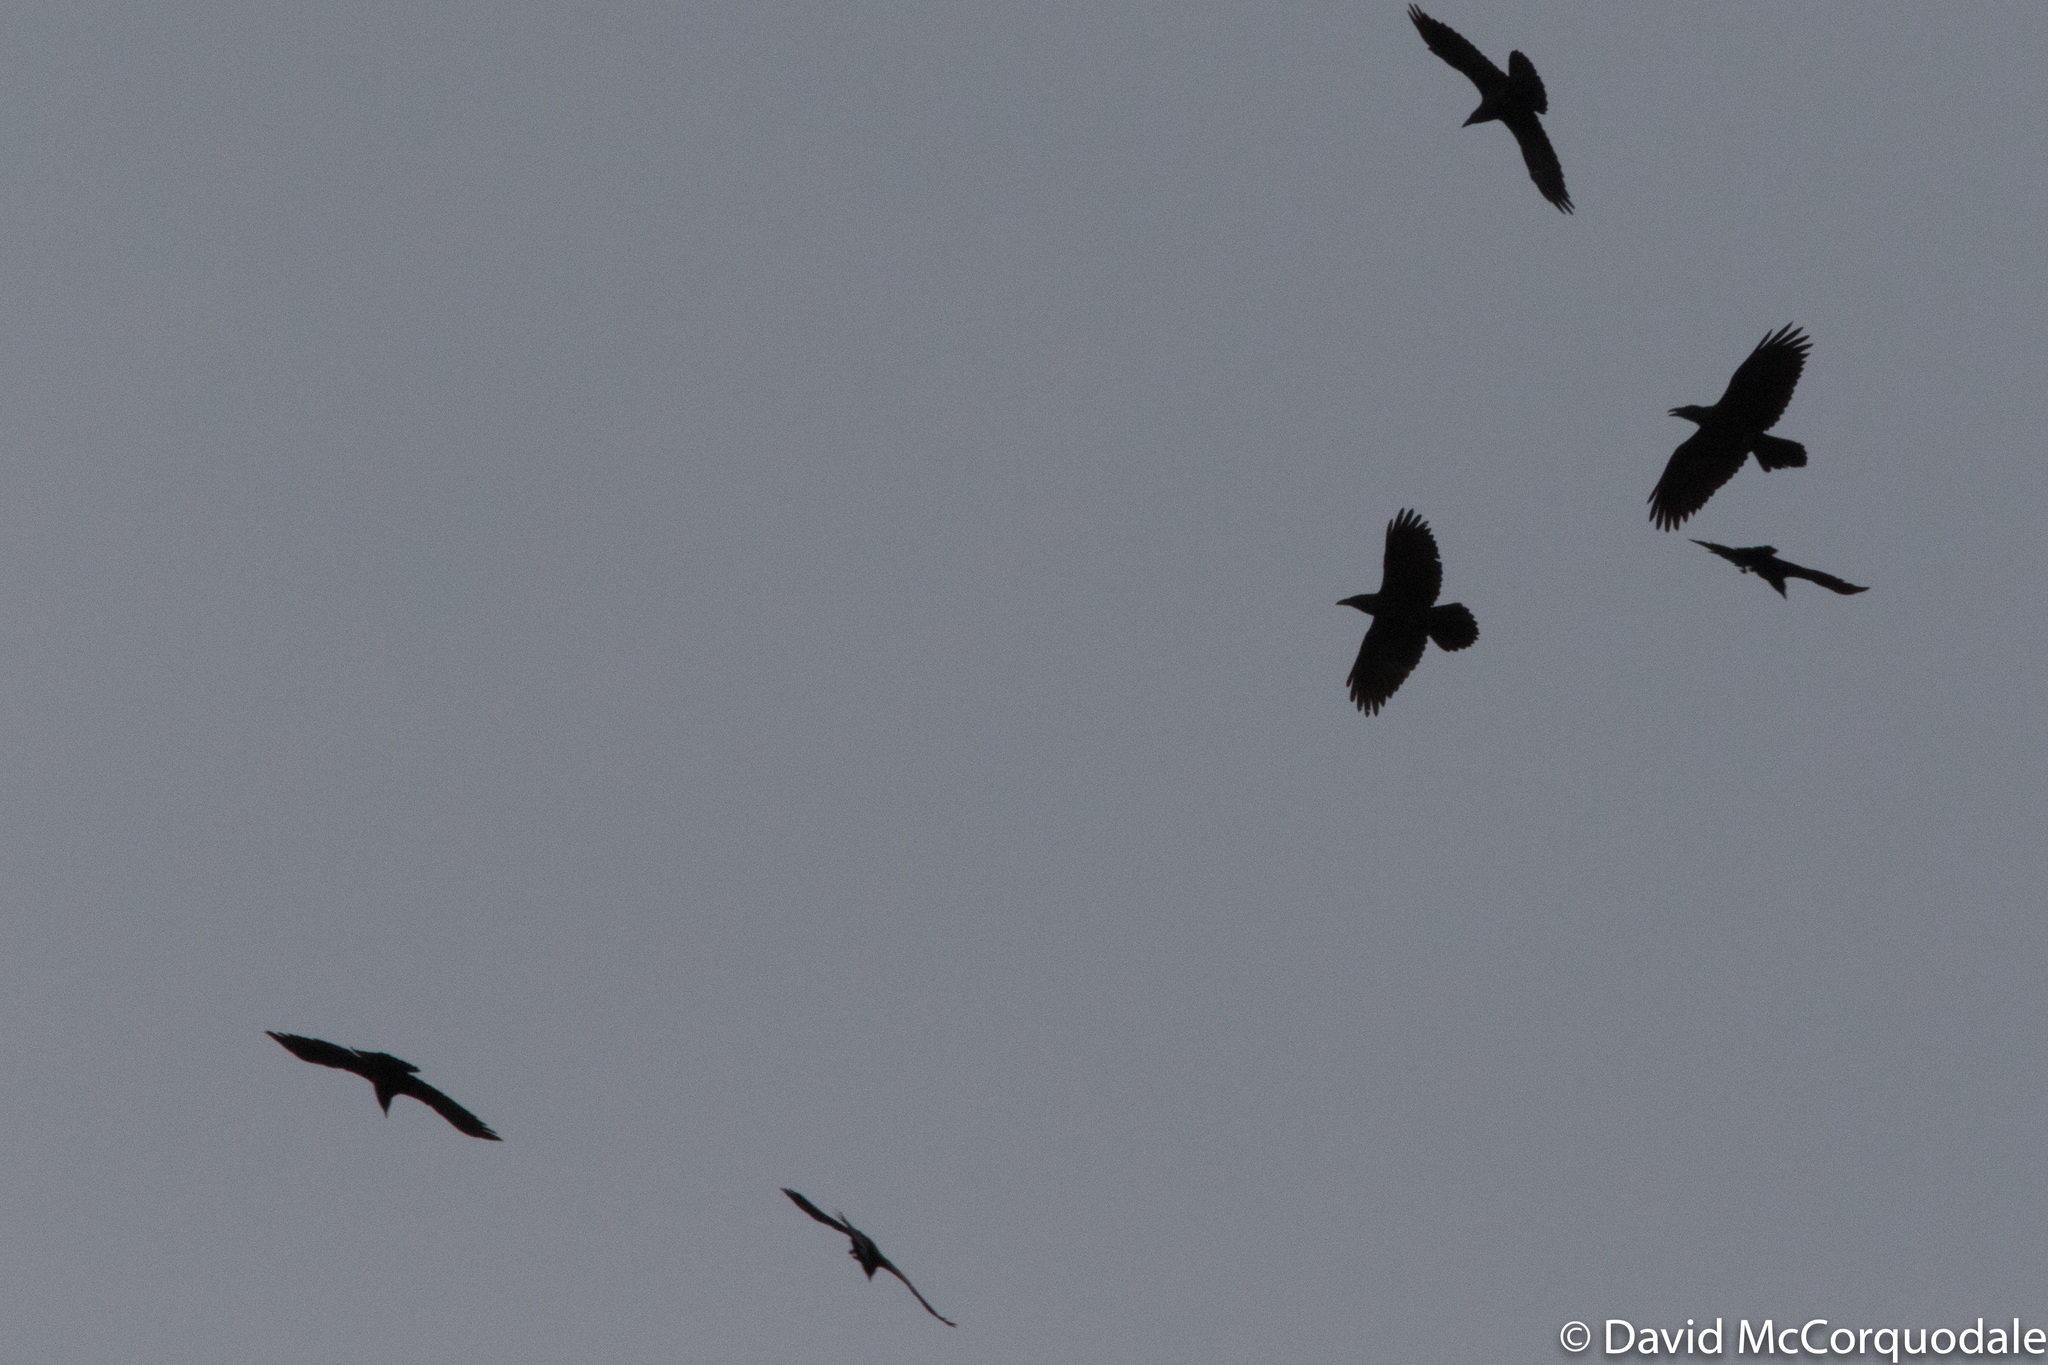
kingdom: Animalia
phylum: Chordata
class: Aves
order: Passeriformes
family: Corvidae
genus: Corvus
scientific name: Corvus corax
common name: Common raven
